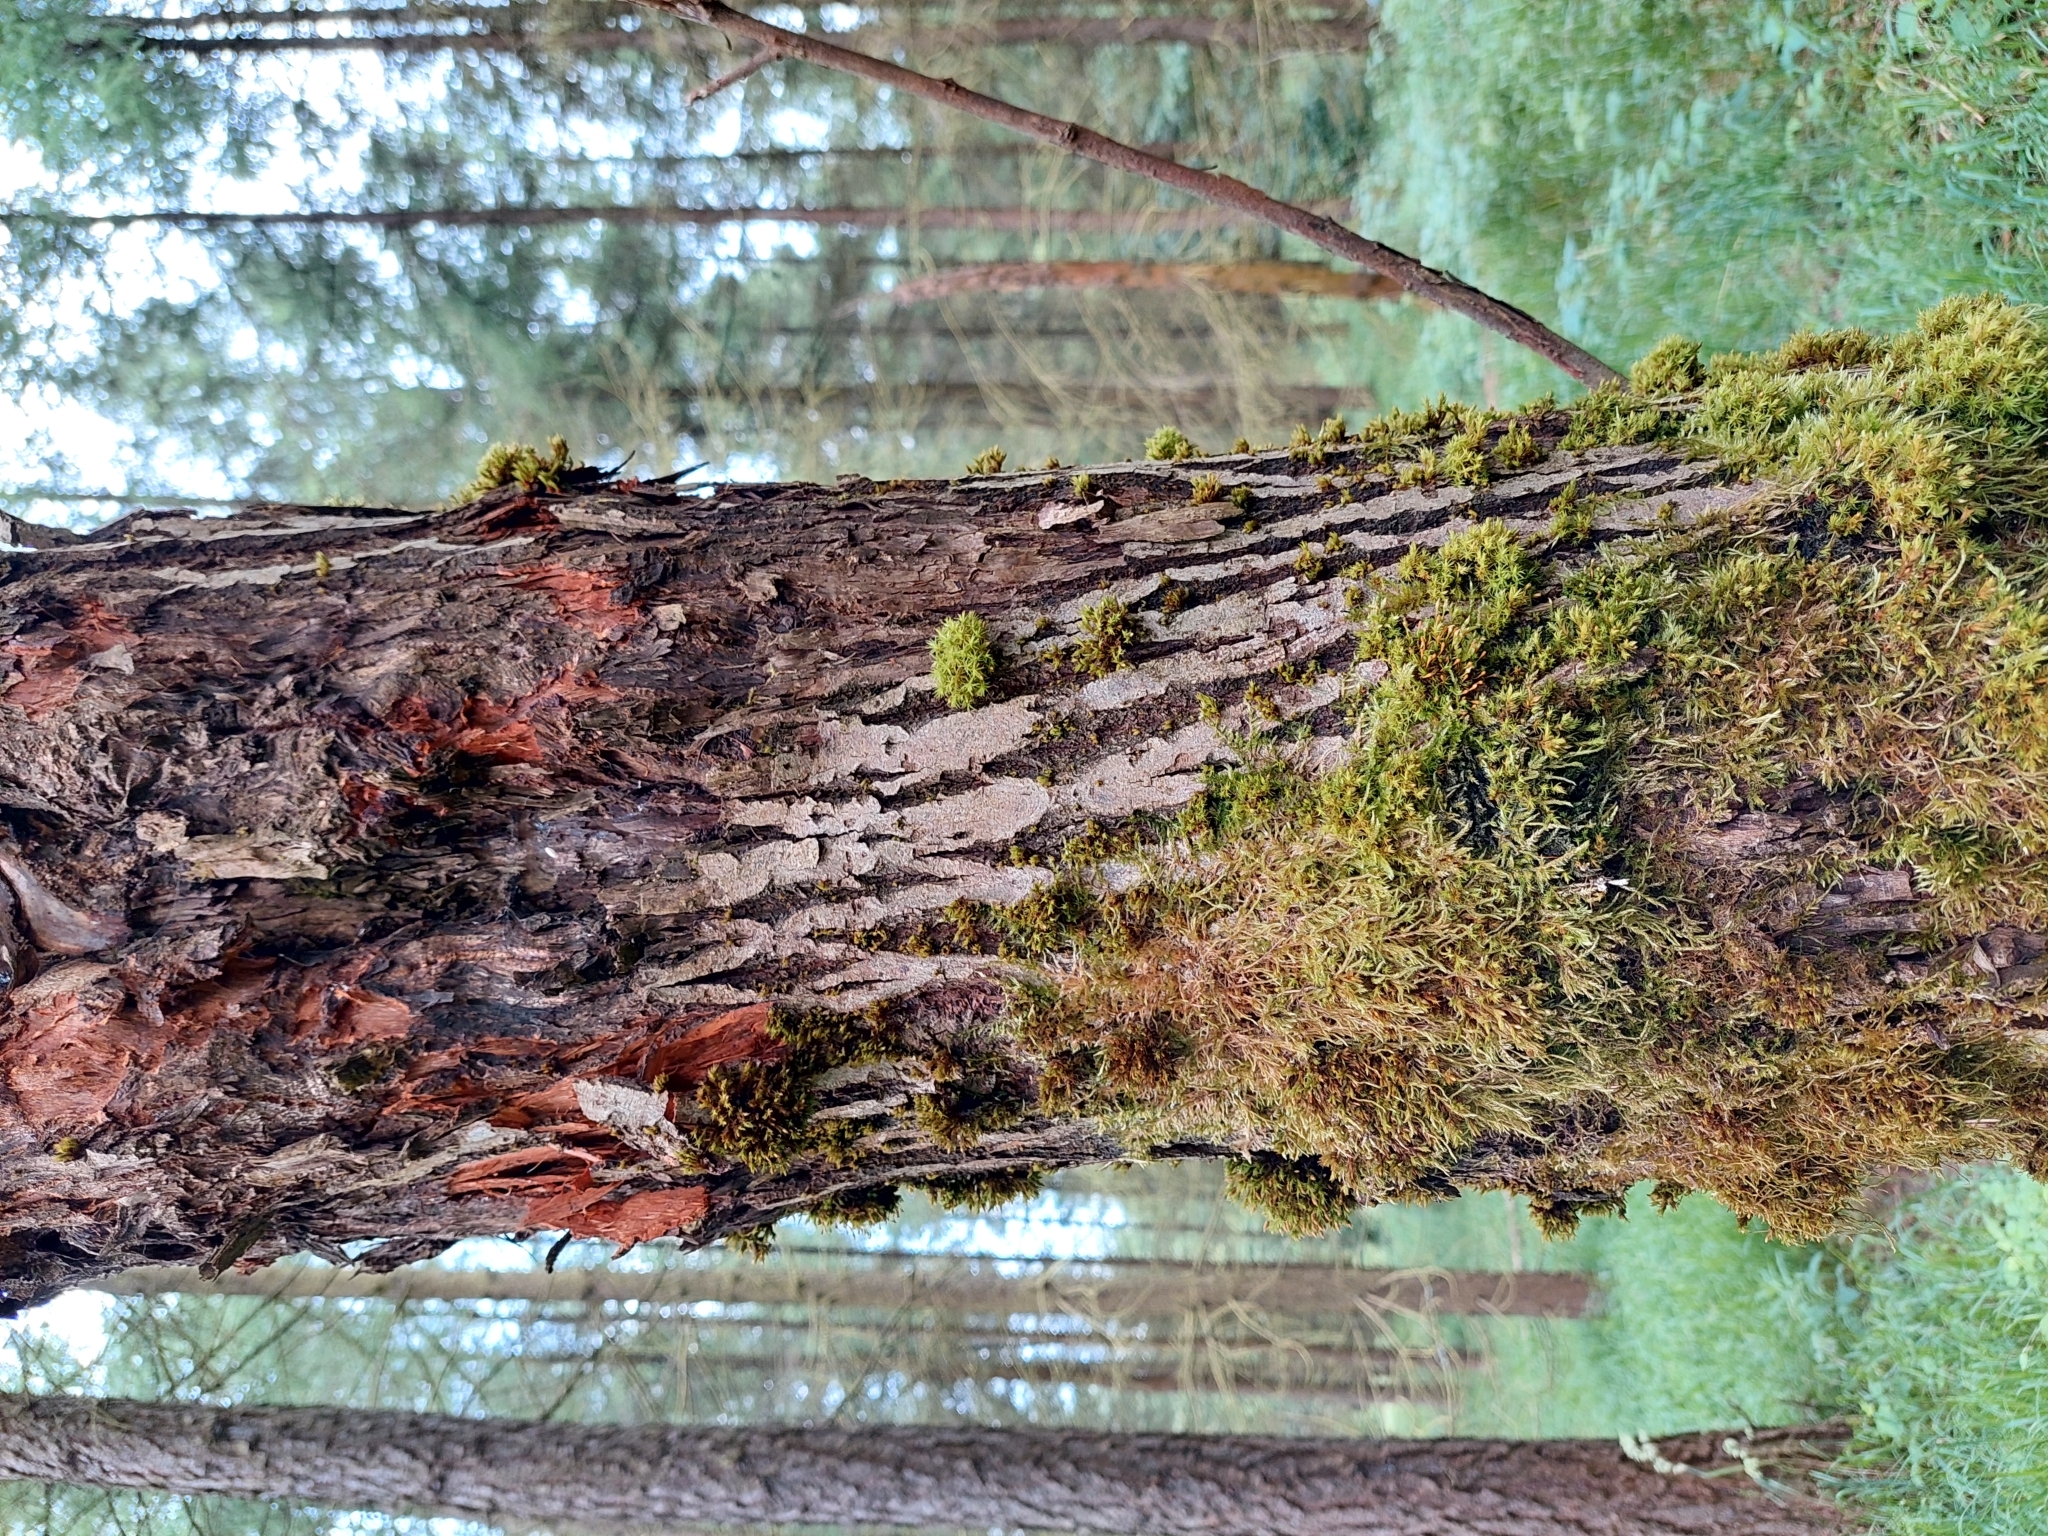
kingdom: Plantae
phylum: Tracheophyta
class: Magnoliopsida
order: Malpighiales
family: Salicaceae
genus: Salix
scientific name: Salix caprea
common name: Goat willow
